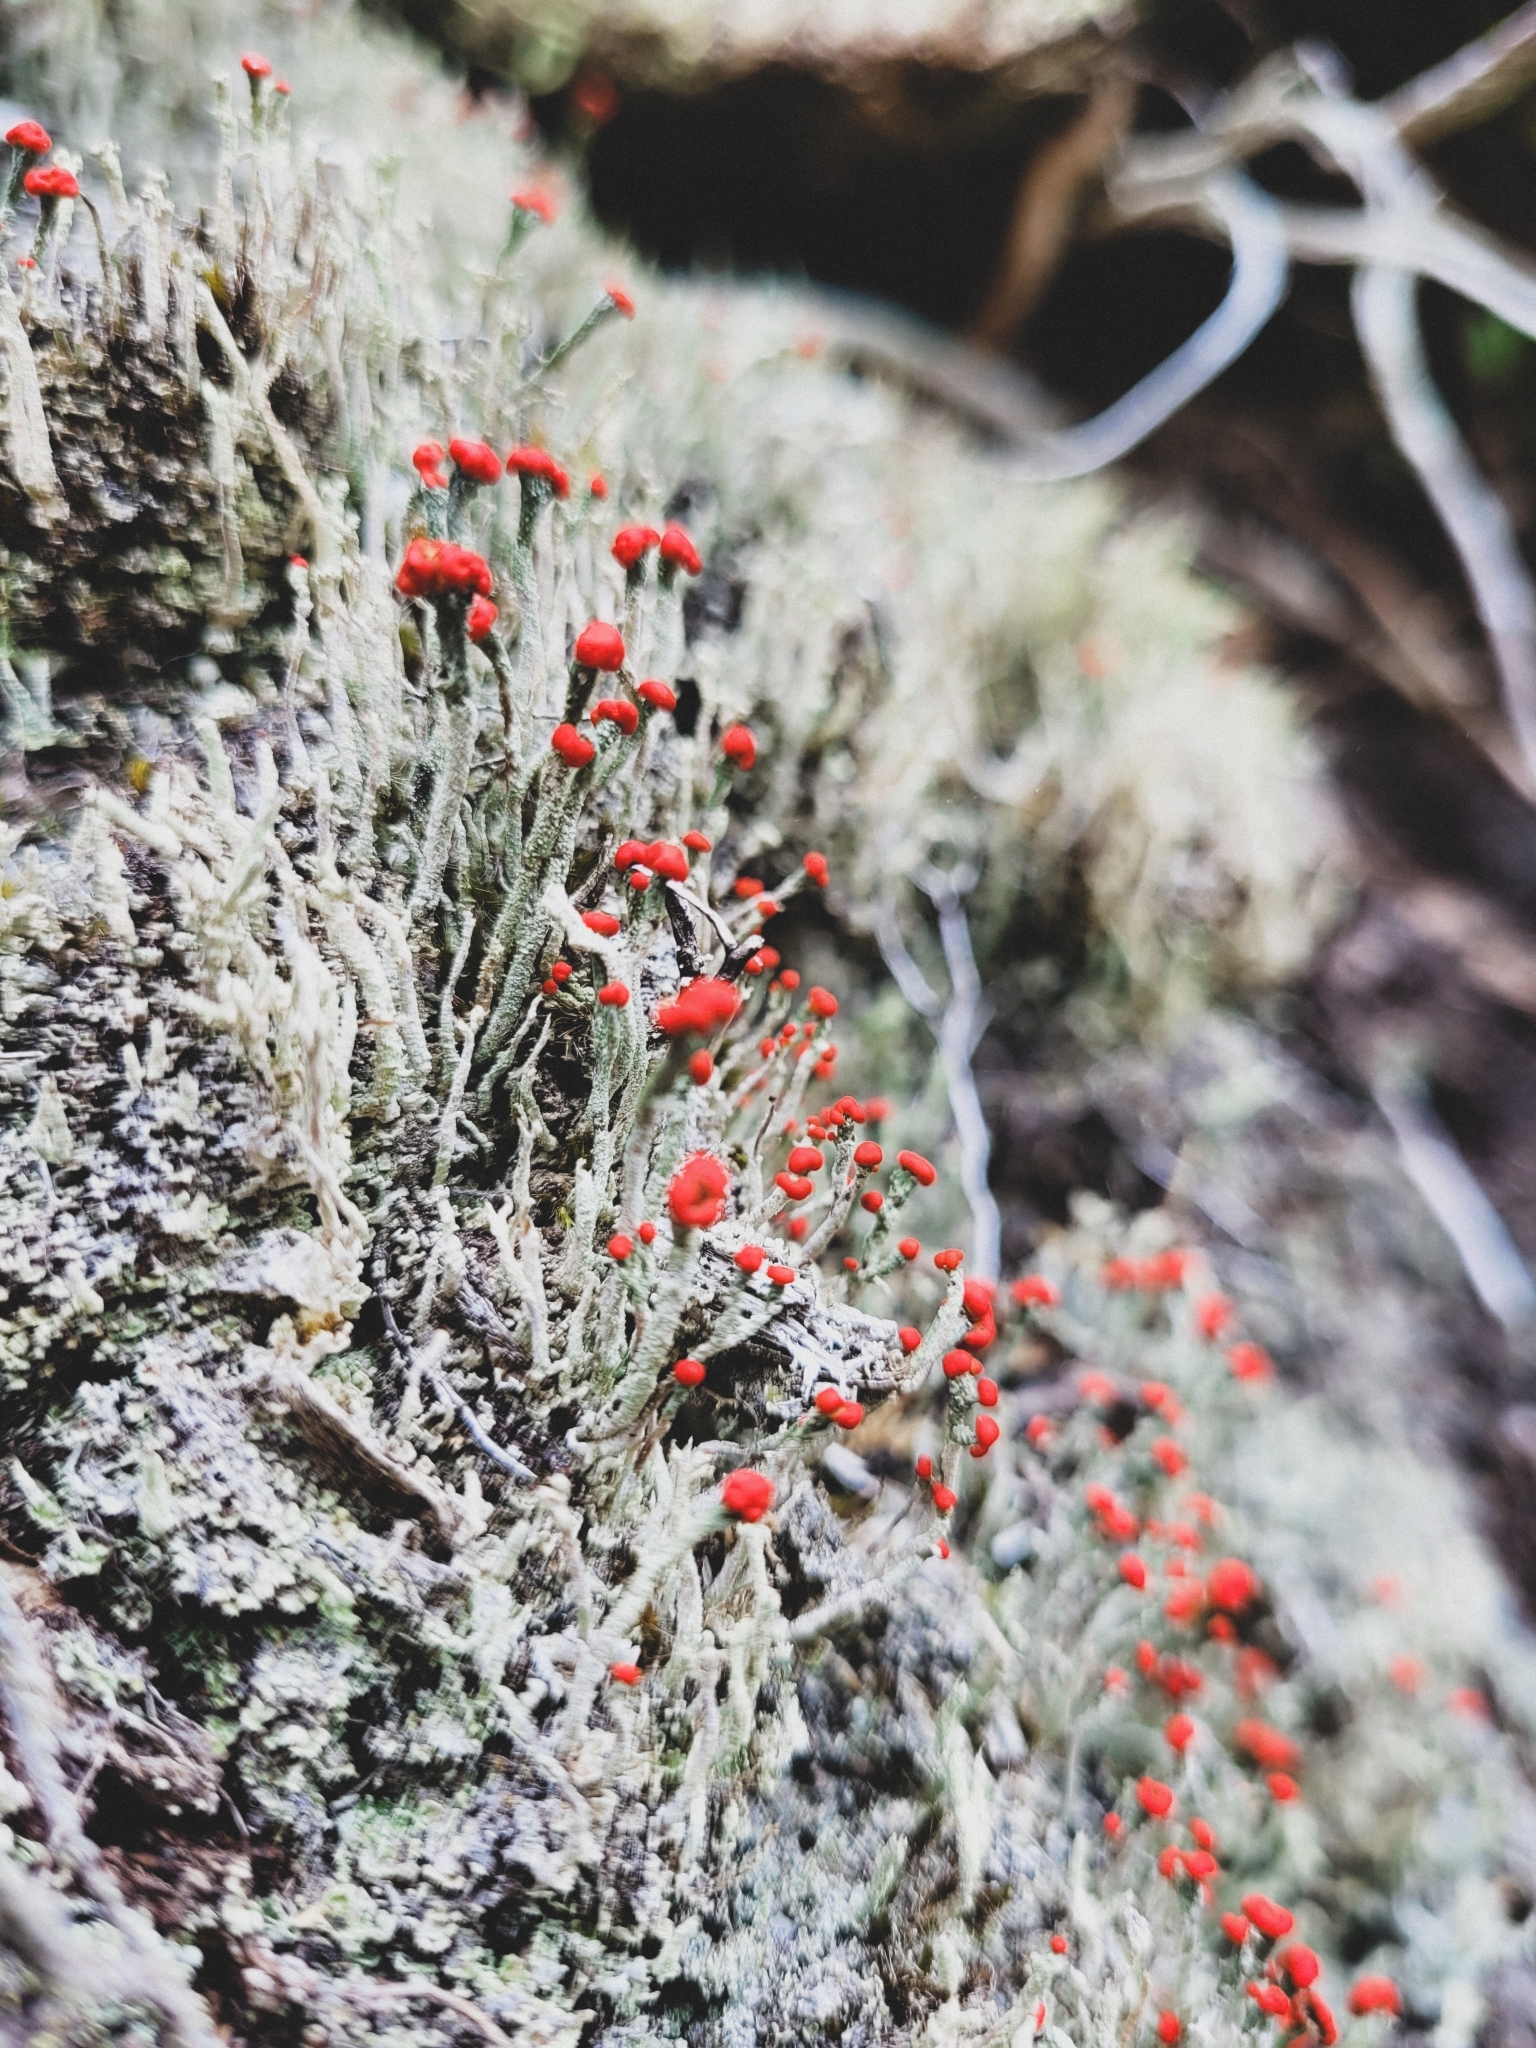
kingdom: Fungi
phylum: Ascomycota
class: Lecanoromycetes
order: Lecanorales
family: Cladoniaceae
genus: Cladonia
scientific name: Cladonia floerkeana
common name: Gritty british soldiers lichen
